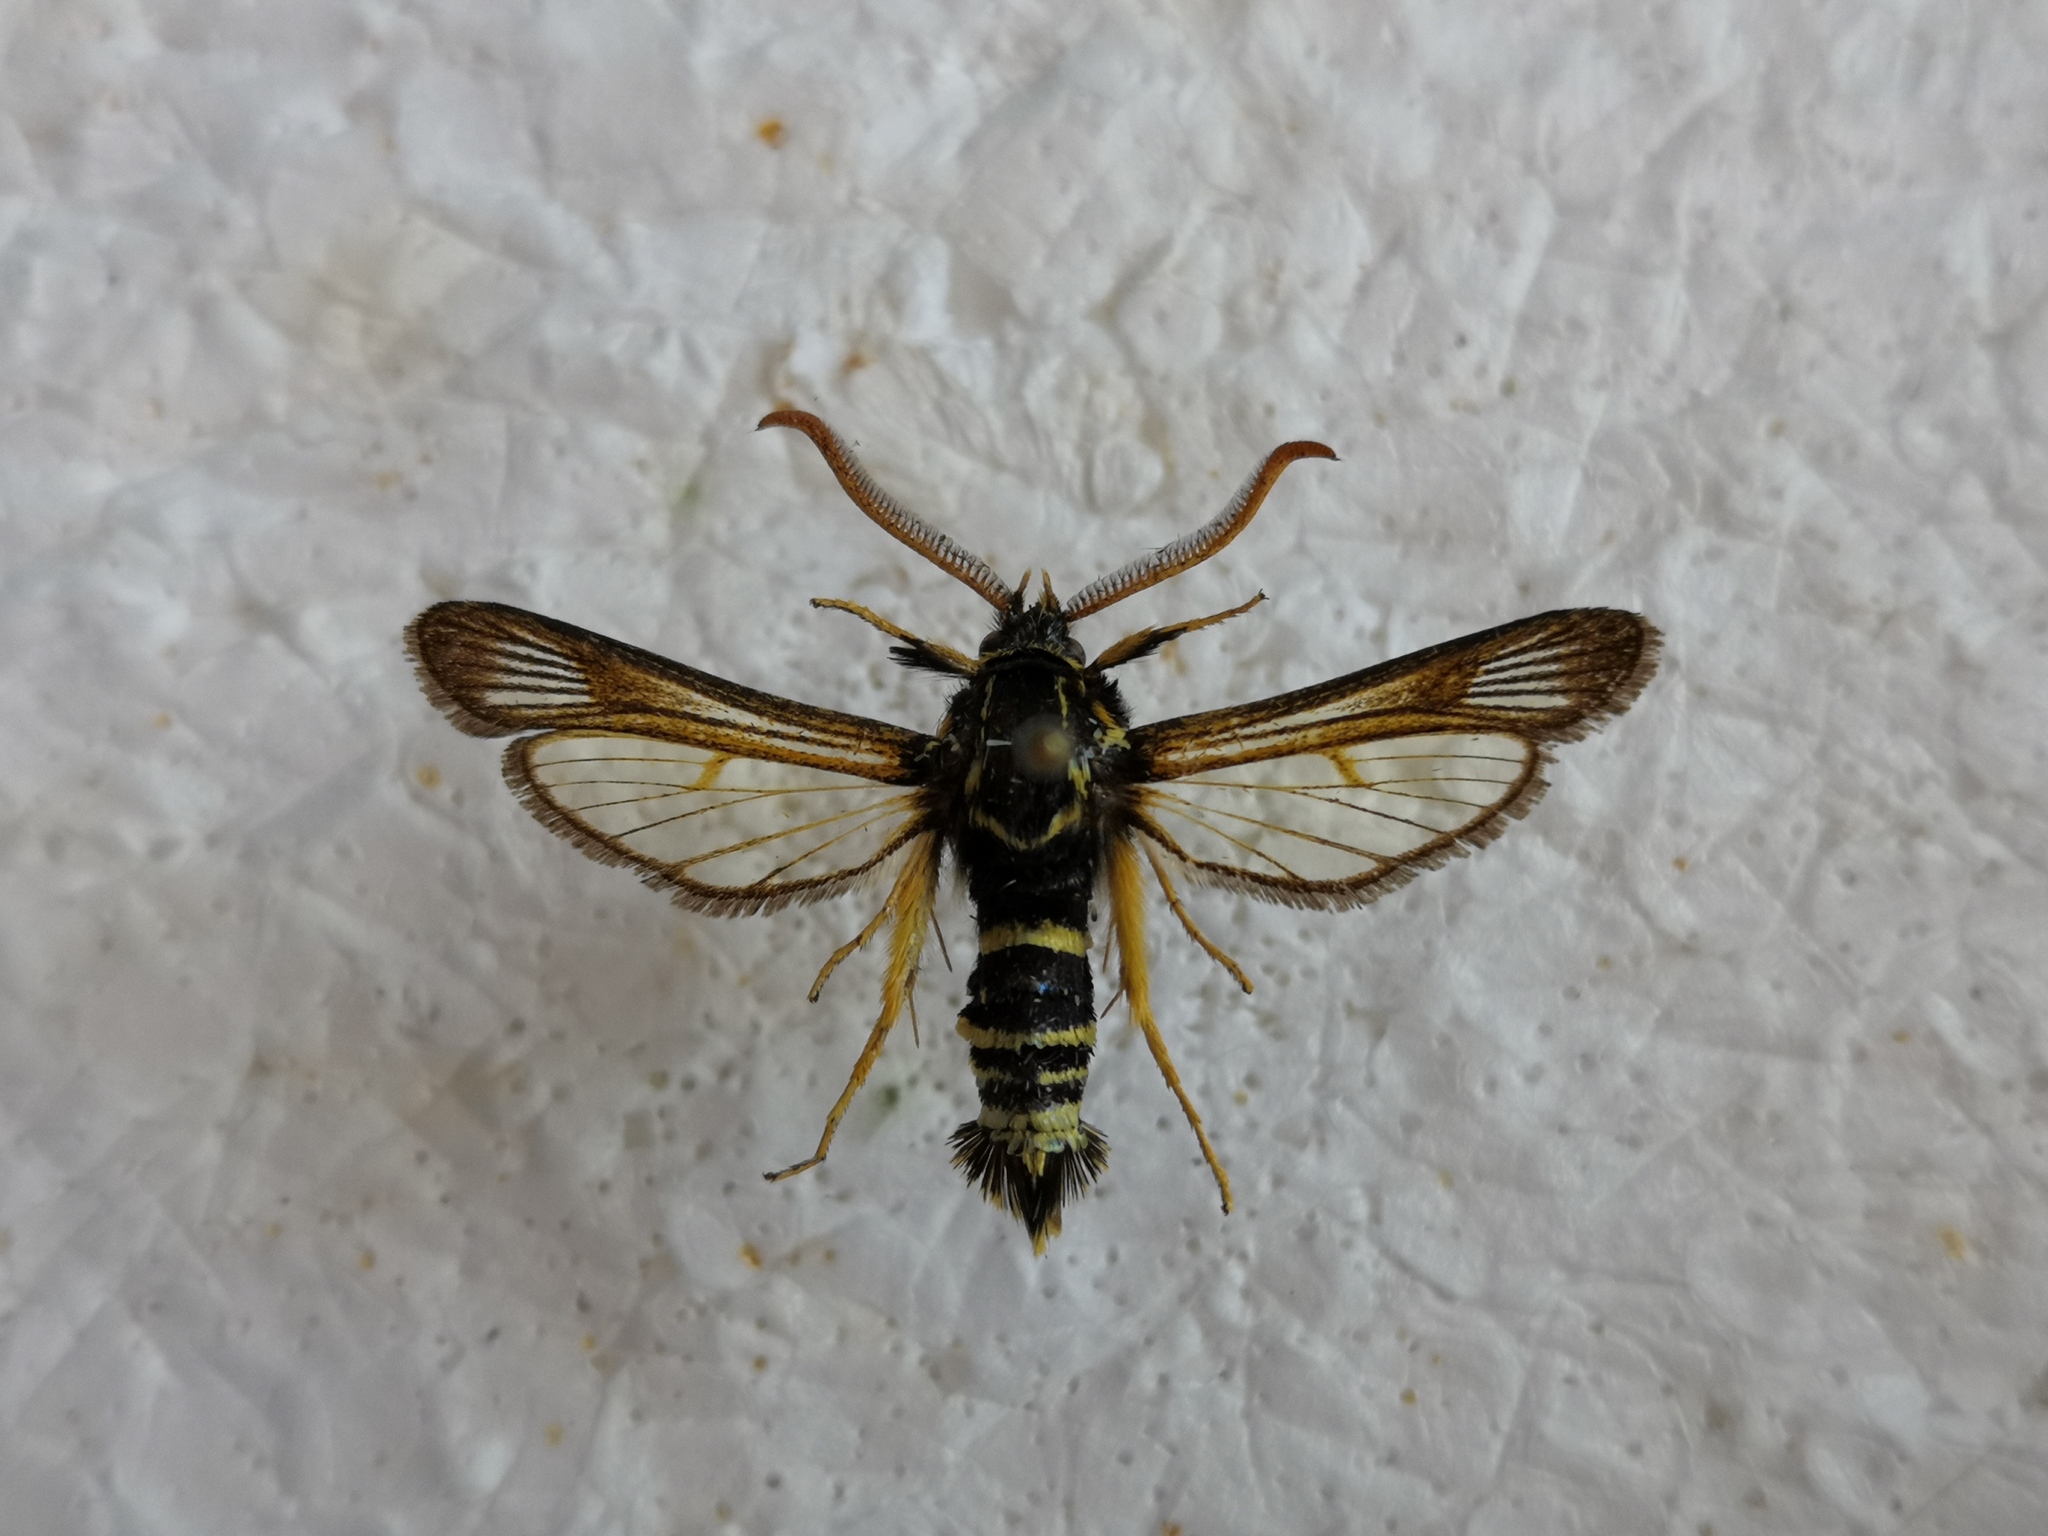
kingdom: Animalia
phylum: Arthropoda
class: Insecta
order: Lepidoptera
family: Sesiidae
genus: Paranthrene
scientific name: Paranthrene insolitus
